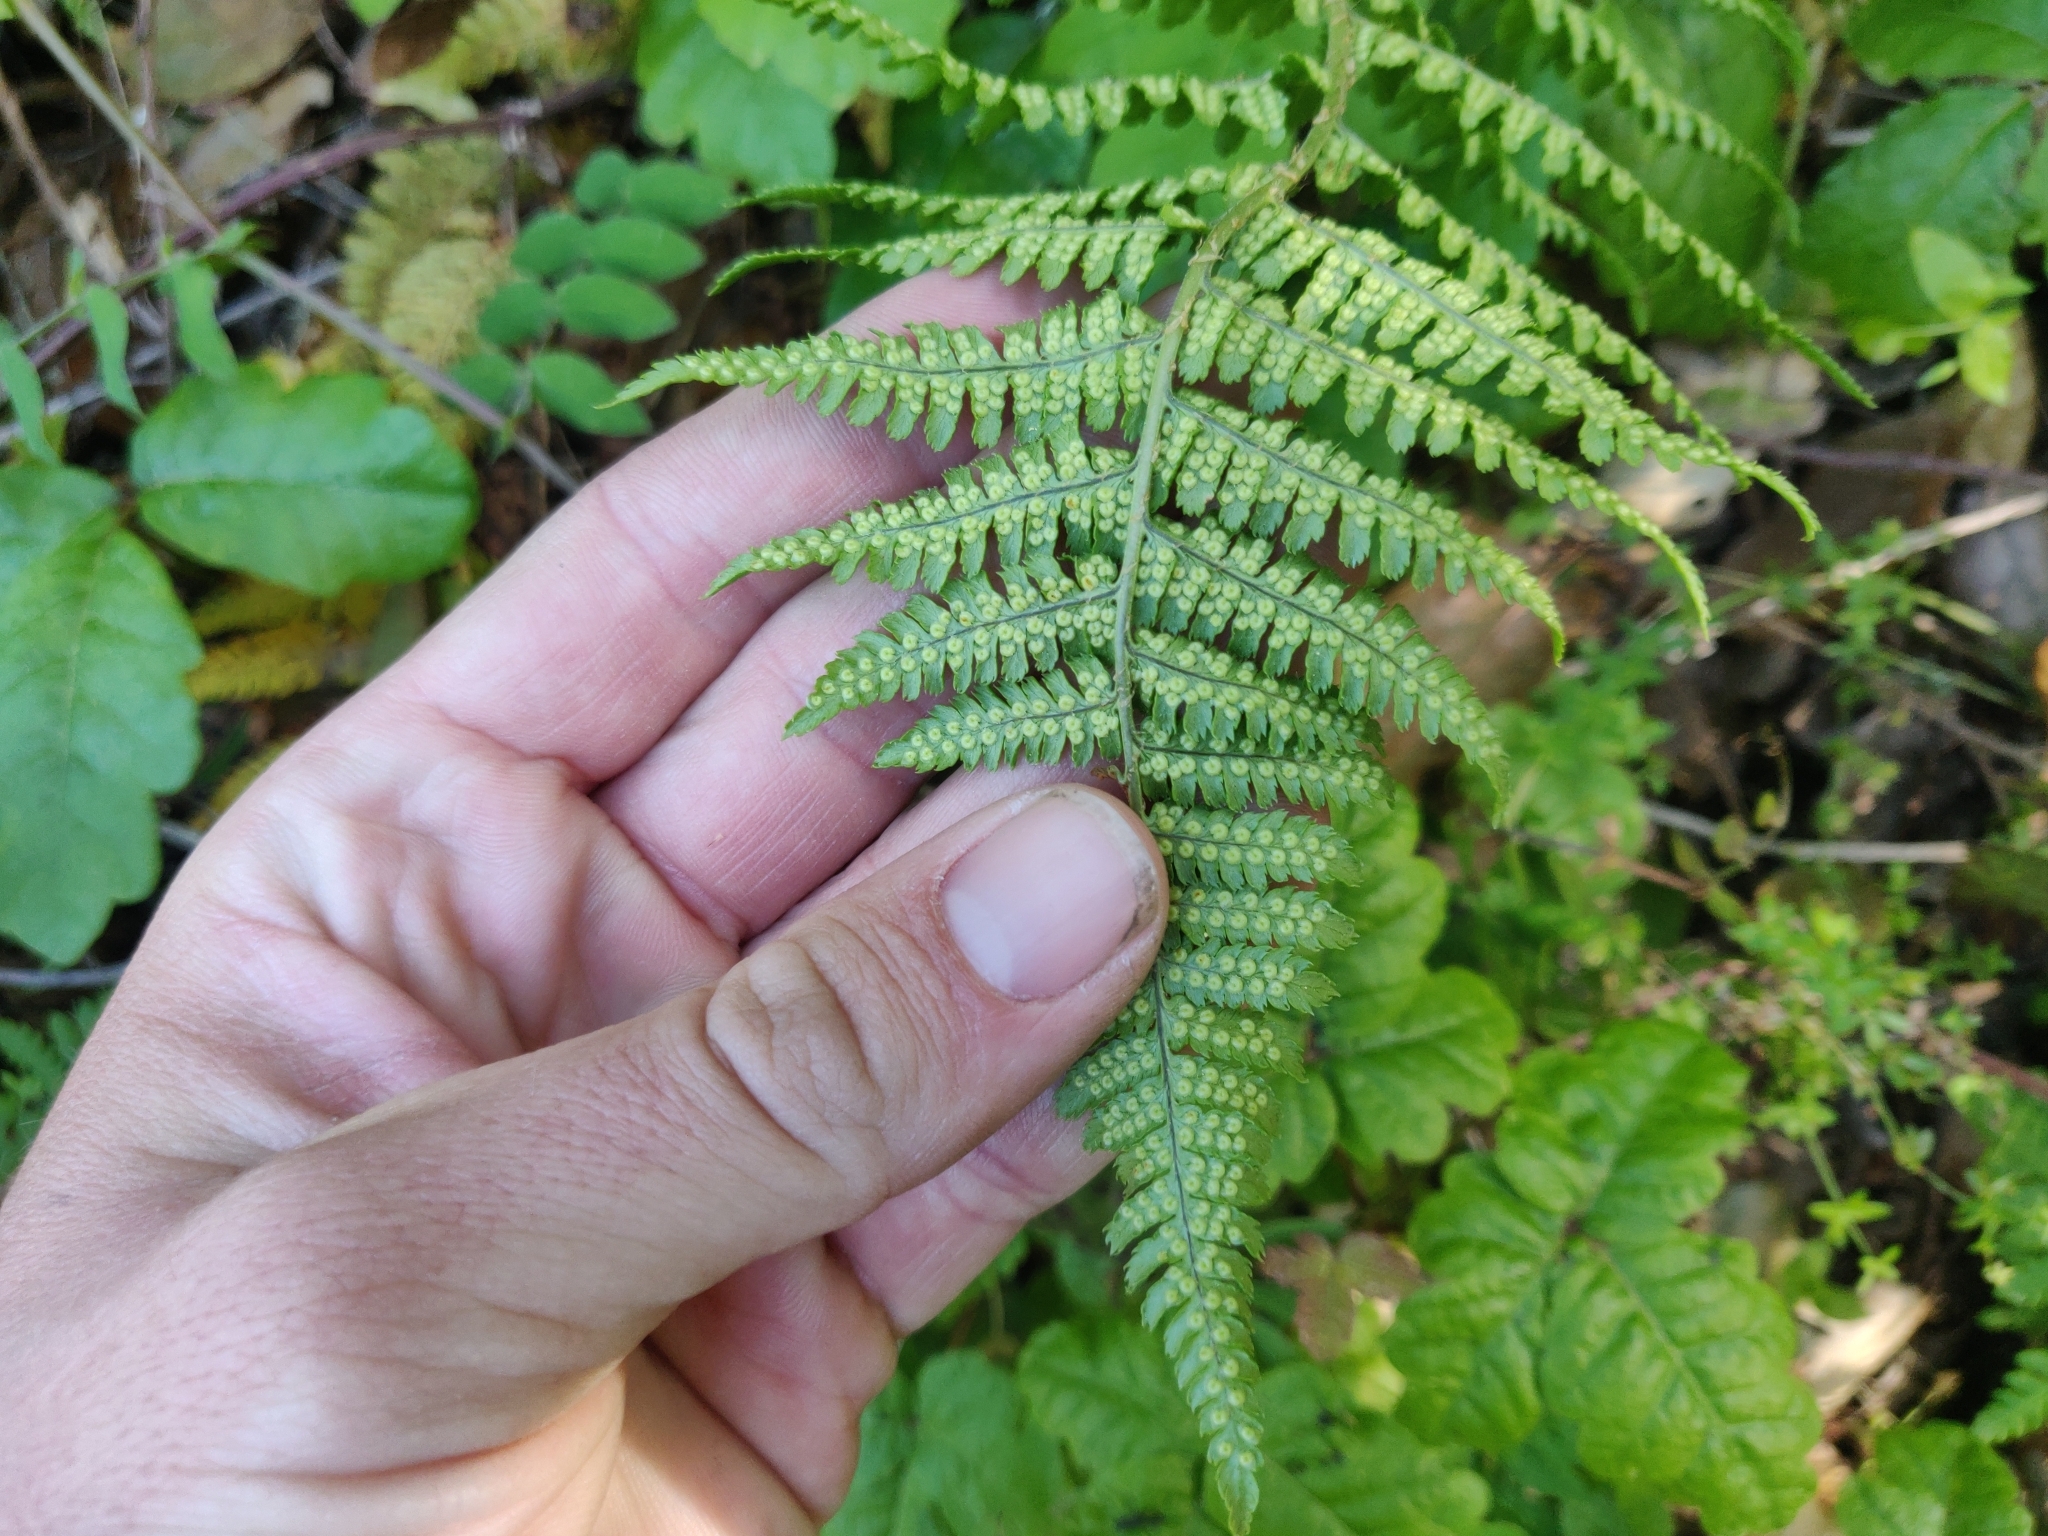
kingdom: Plantae
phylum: Tracheophyta
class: Polypodiopsida
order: Polypodiales
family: Dryopteridaceae
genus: Dryopteris
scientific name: Dryopteris arguta
